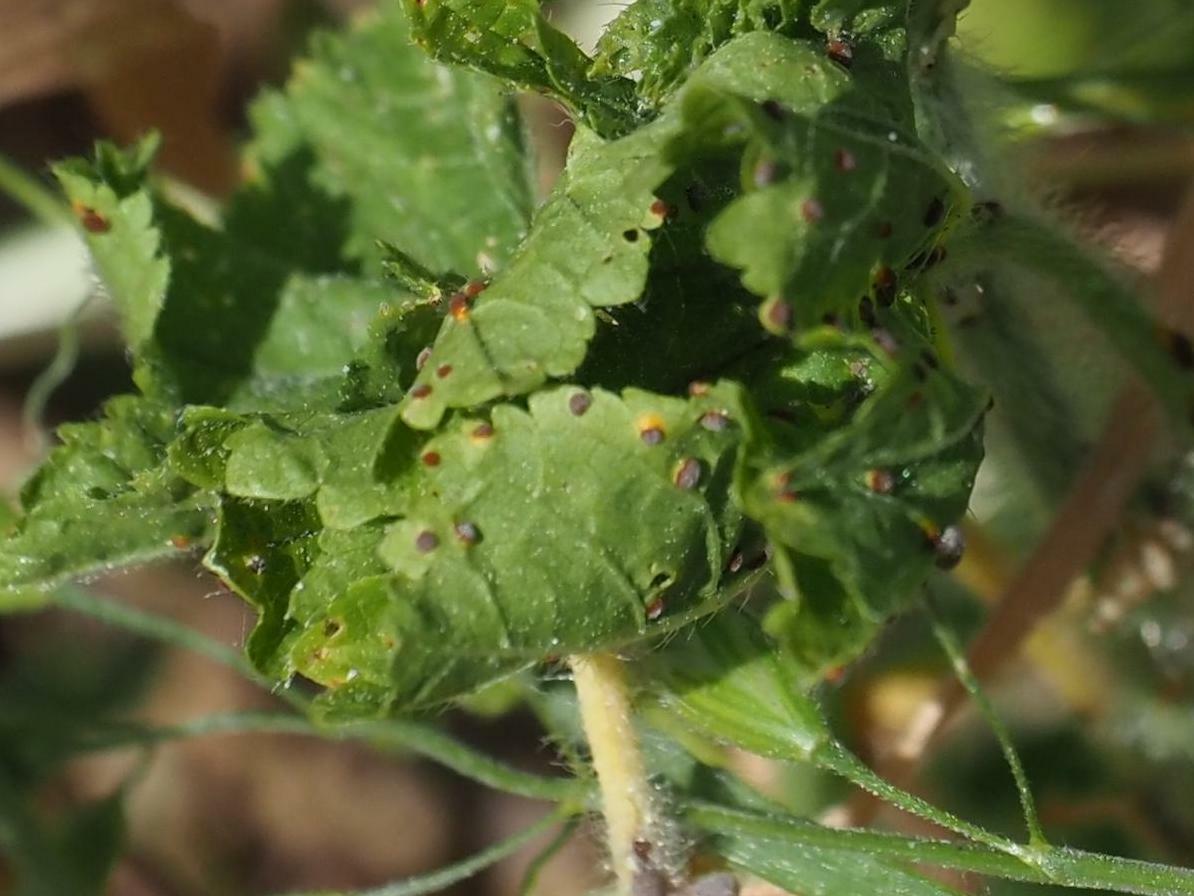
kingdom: Fungi
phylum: Basidiomycota
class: Pucciniomycetes
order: Pucciniales
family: Pucciniaceae
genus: Puccinia
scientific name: Puccinia malvacearum
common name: Hollyhock rust
